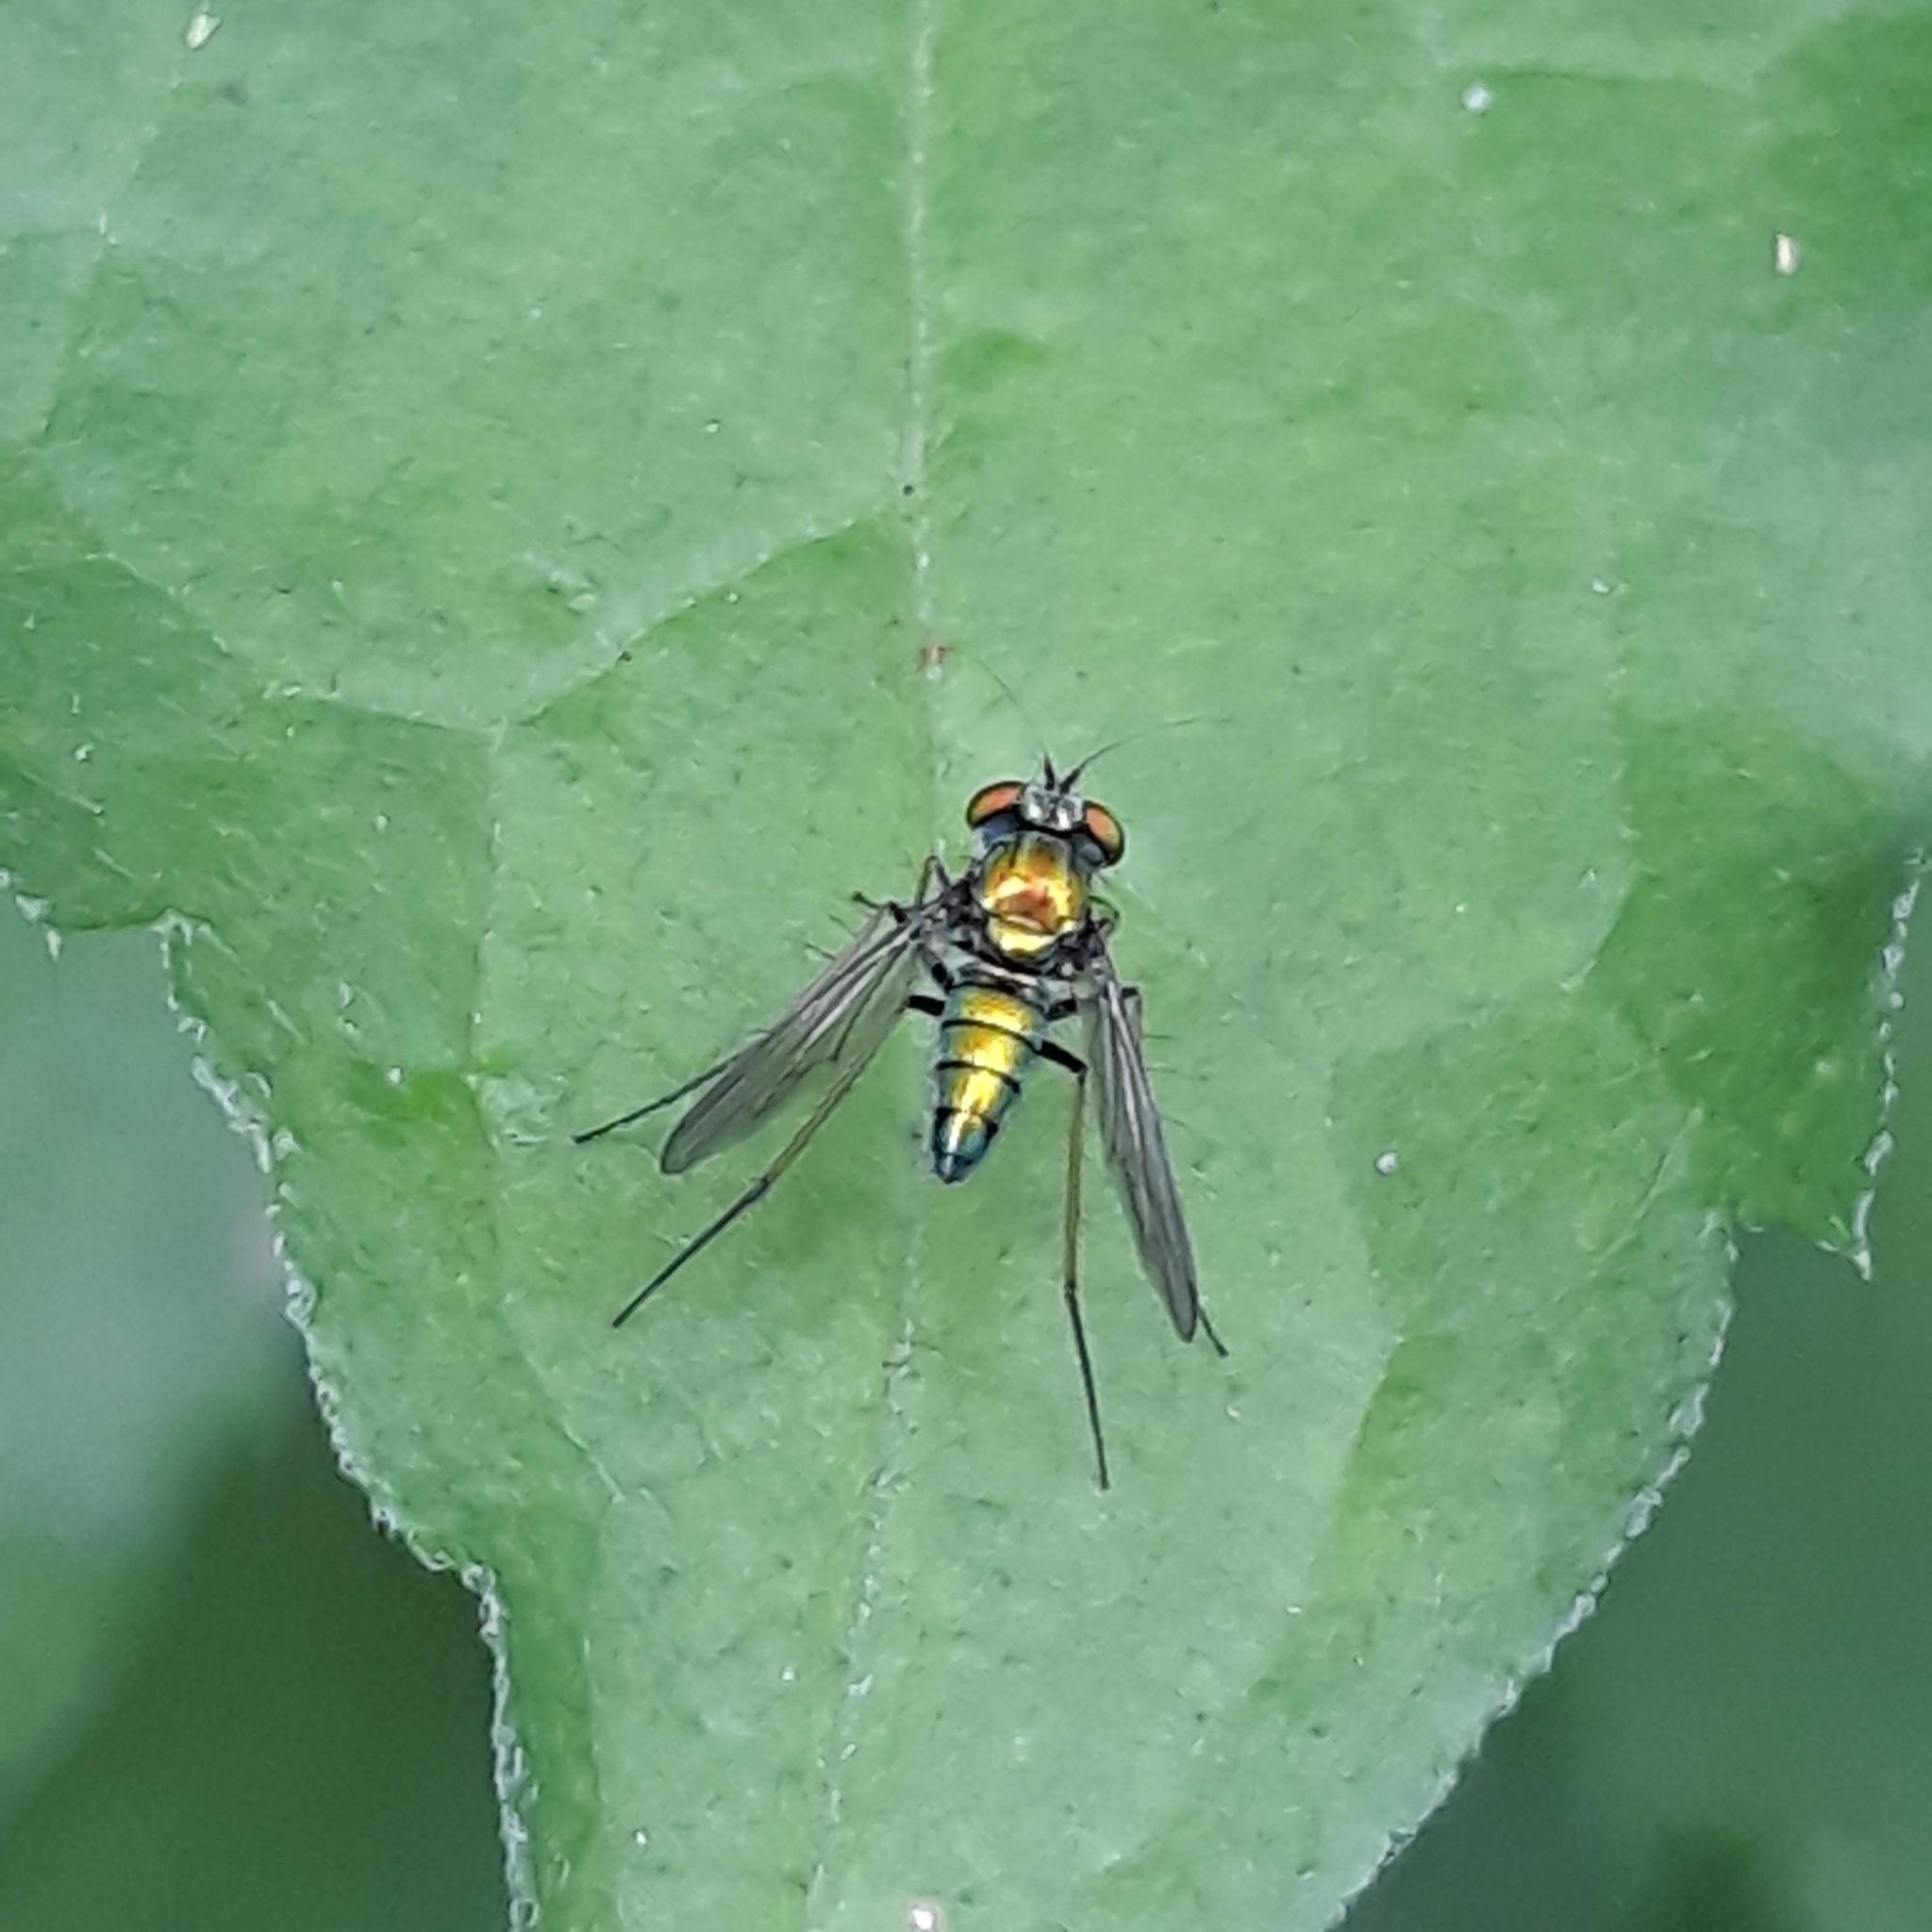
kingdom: Animalia
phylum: Arthropoda
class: Insecta
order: Diptera
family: Dolichopodidae
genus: Condylostylus
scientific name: Condylostylus
